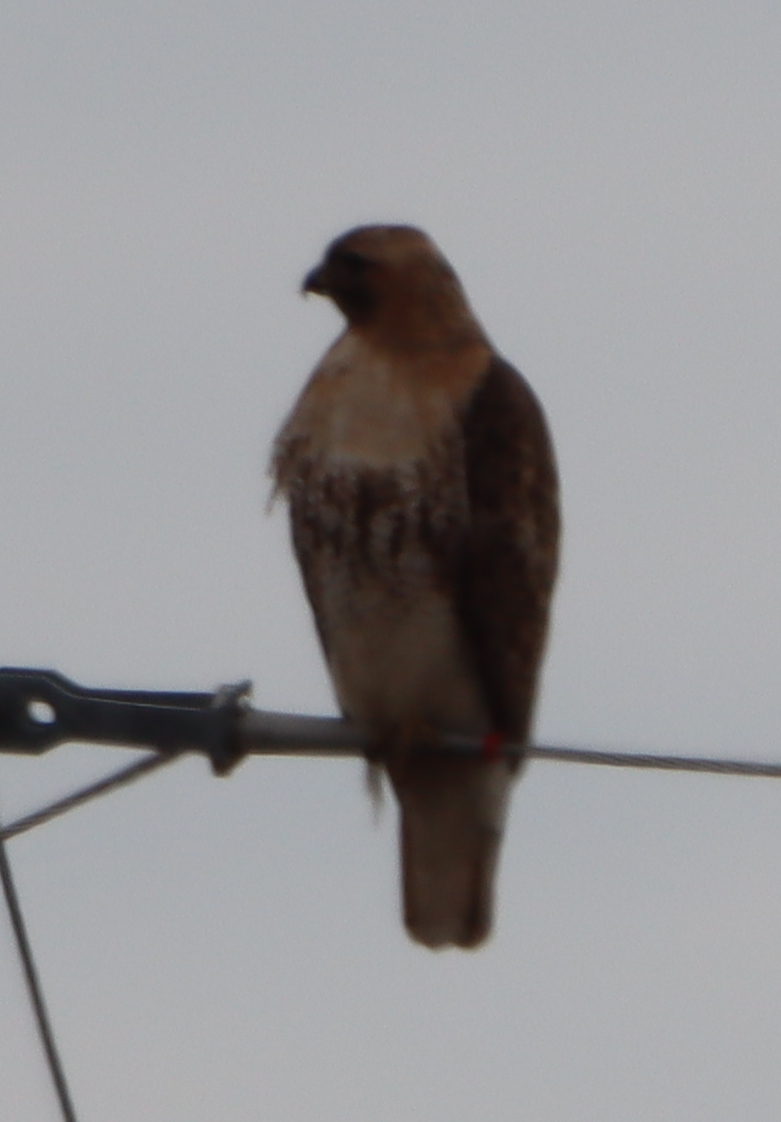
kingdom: Animalia
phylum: Chordata
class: Aves
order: Accipitriformes
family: Accipitridae
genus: Buteo
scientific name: Buteo jamaicensis
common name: Red-tailed hawk
